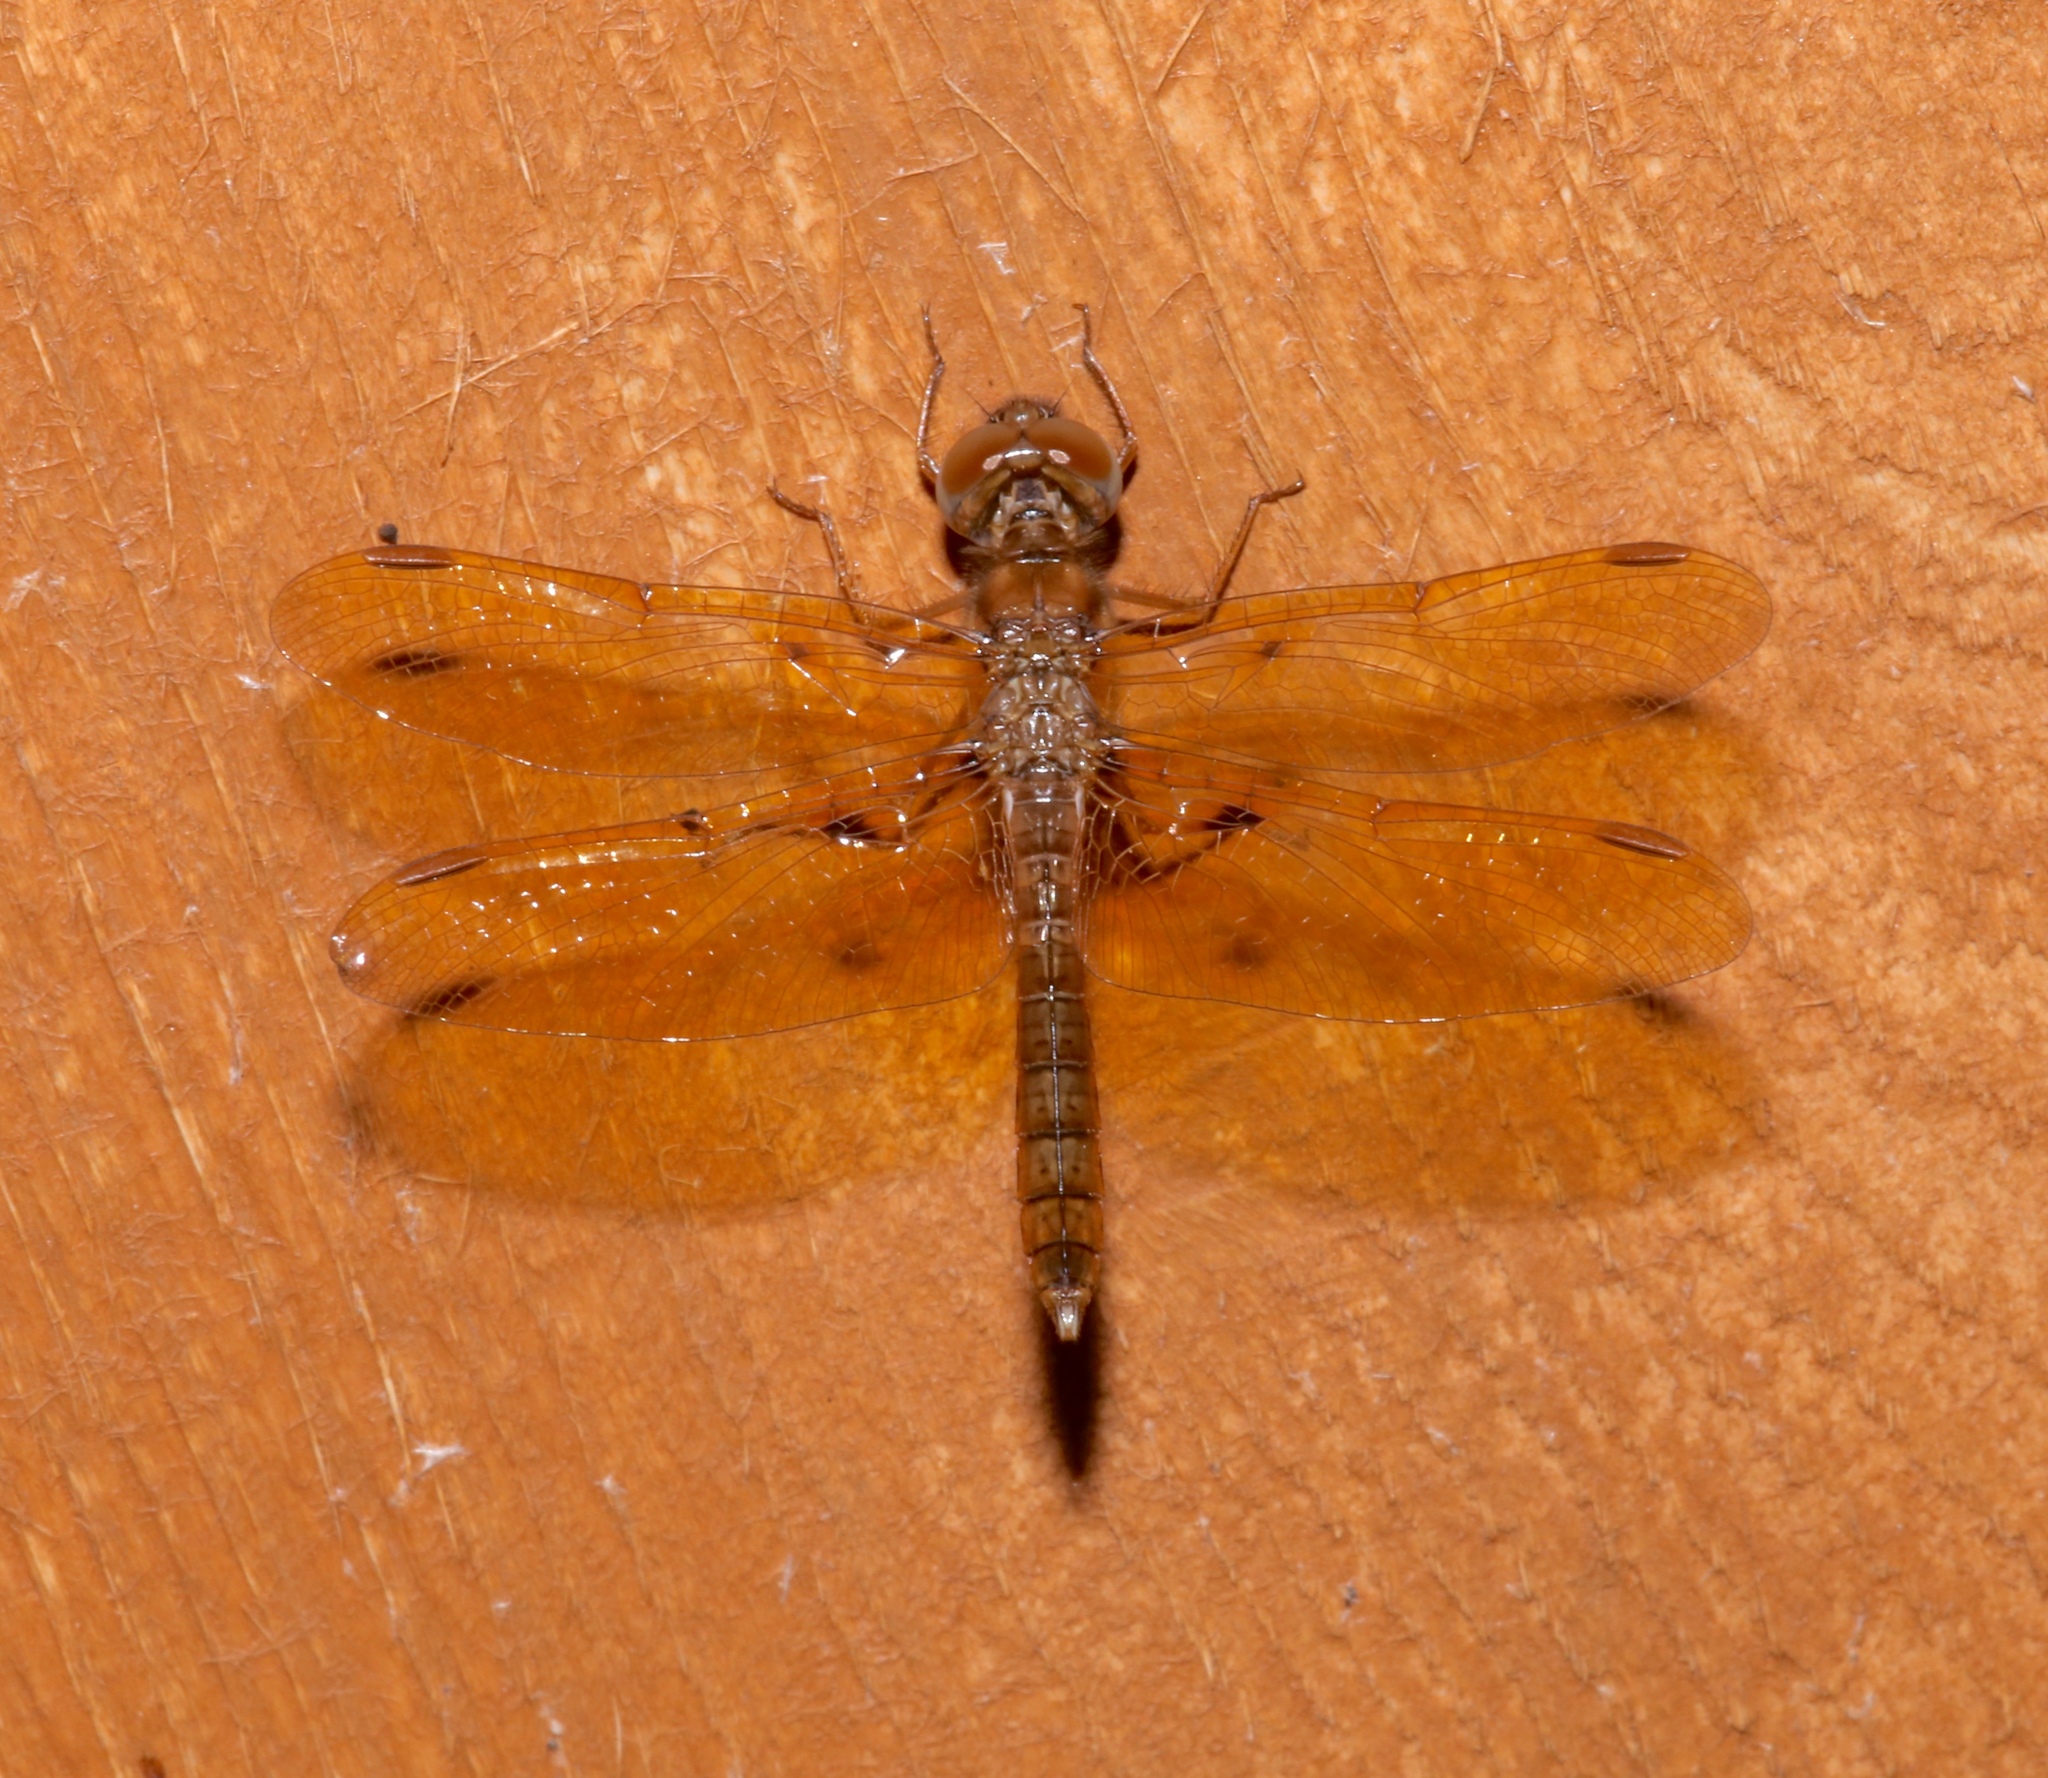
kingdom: Animalia
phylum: Arthropoda
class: Insecta
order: Odonata
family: Libellulidae
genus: Perithemis
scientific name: Perithemis tenera
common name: Eastern amberwing
